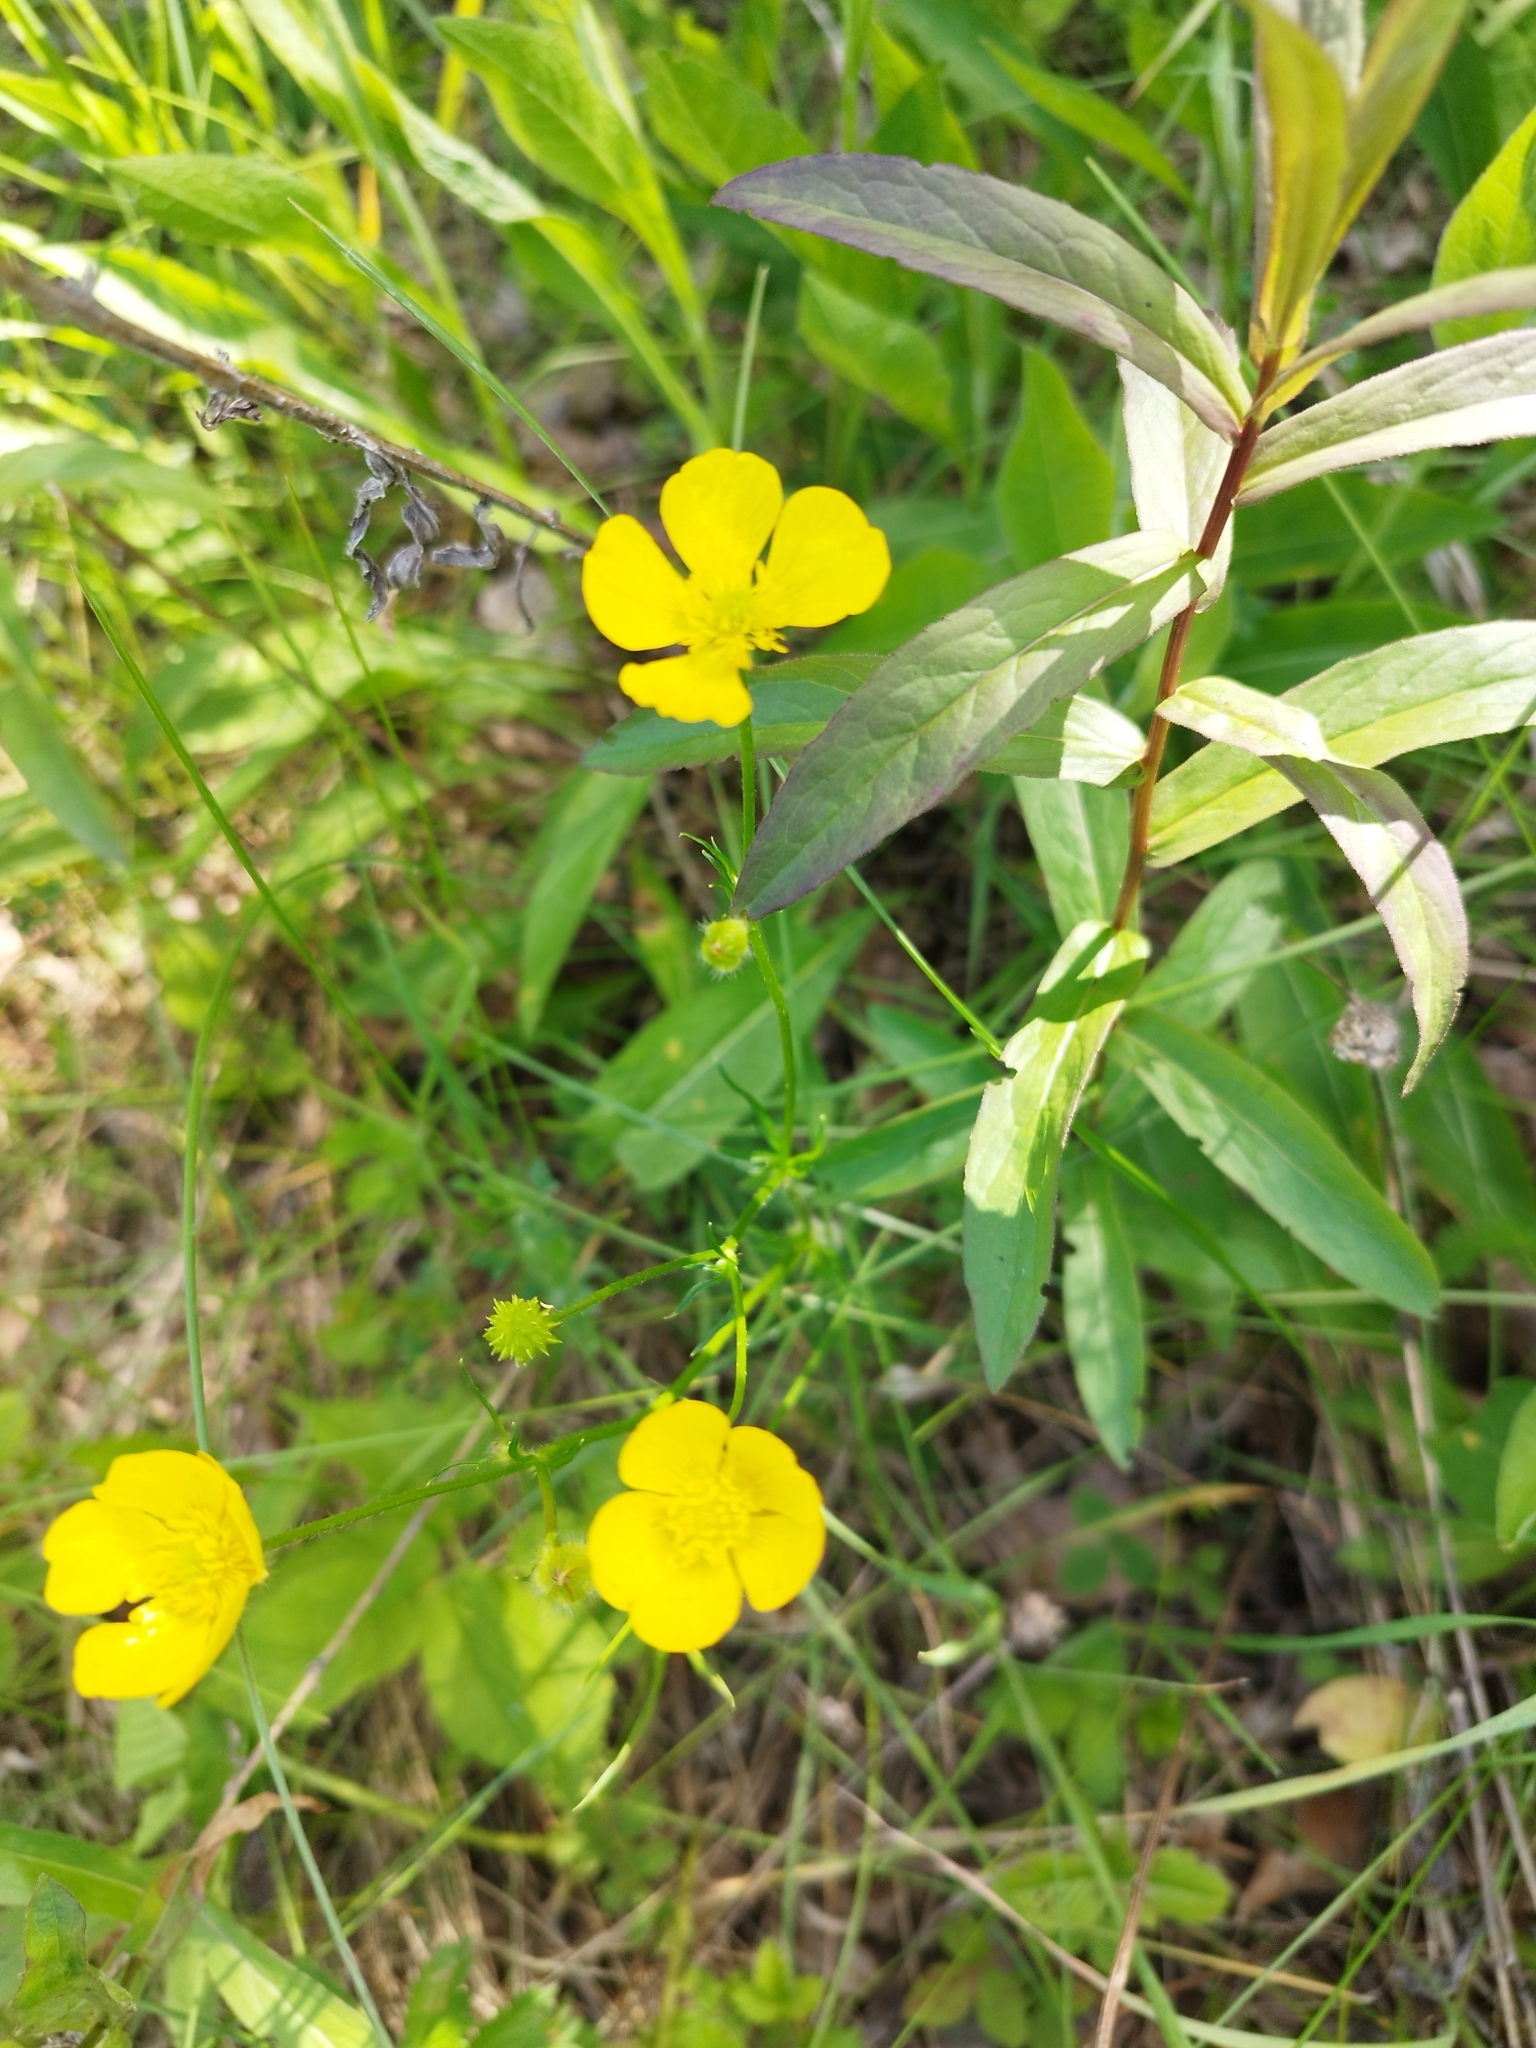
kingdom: Plantae
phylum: Tracheophyta
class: Magnoliopsida
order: Ranunculales
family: Ranunculaceae
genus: Ranunculus
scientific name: Ranunculus polyanthemos
